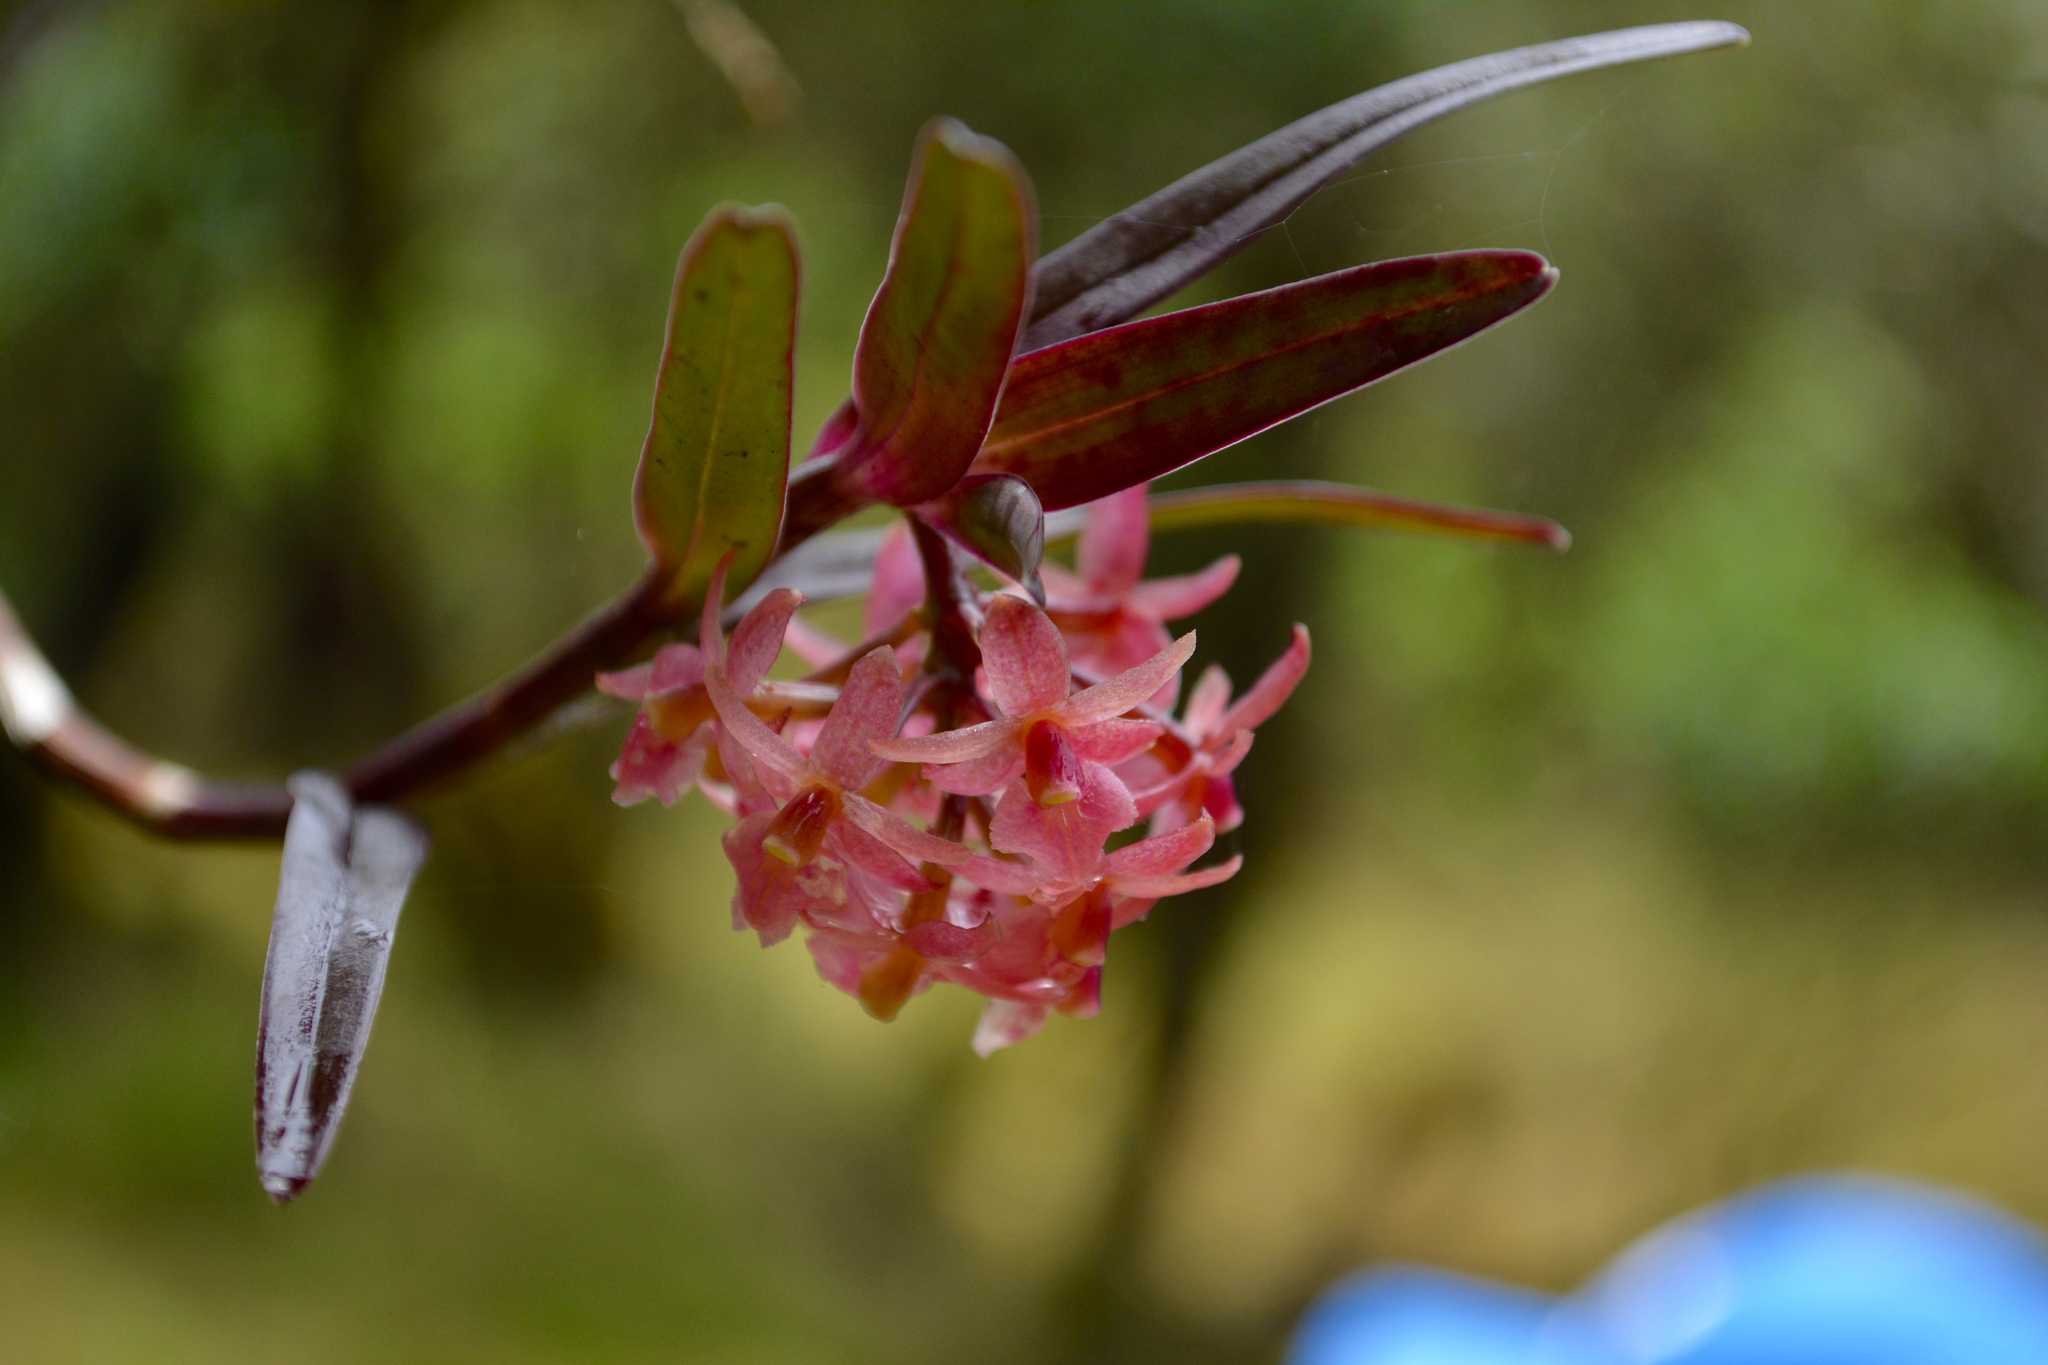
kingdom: Plantae
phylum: Tracheophyta
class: Liliopsida
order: Asparagales
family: Orchidaceae
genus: Epidendrum
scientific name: Epidendrum oxysepalum
